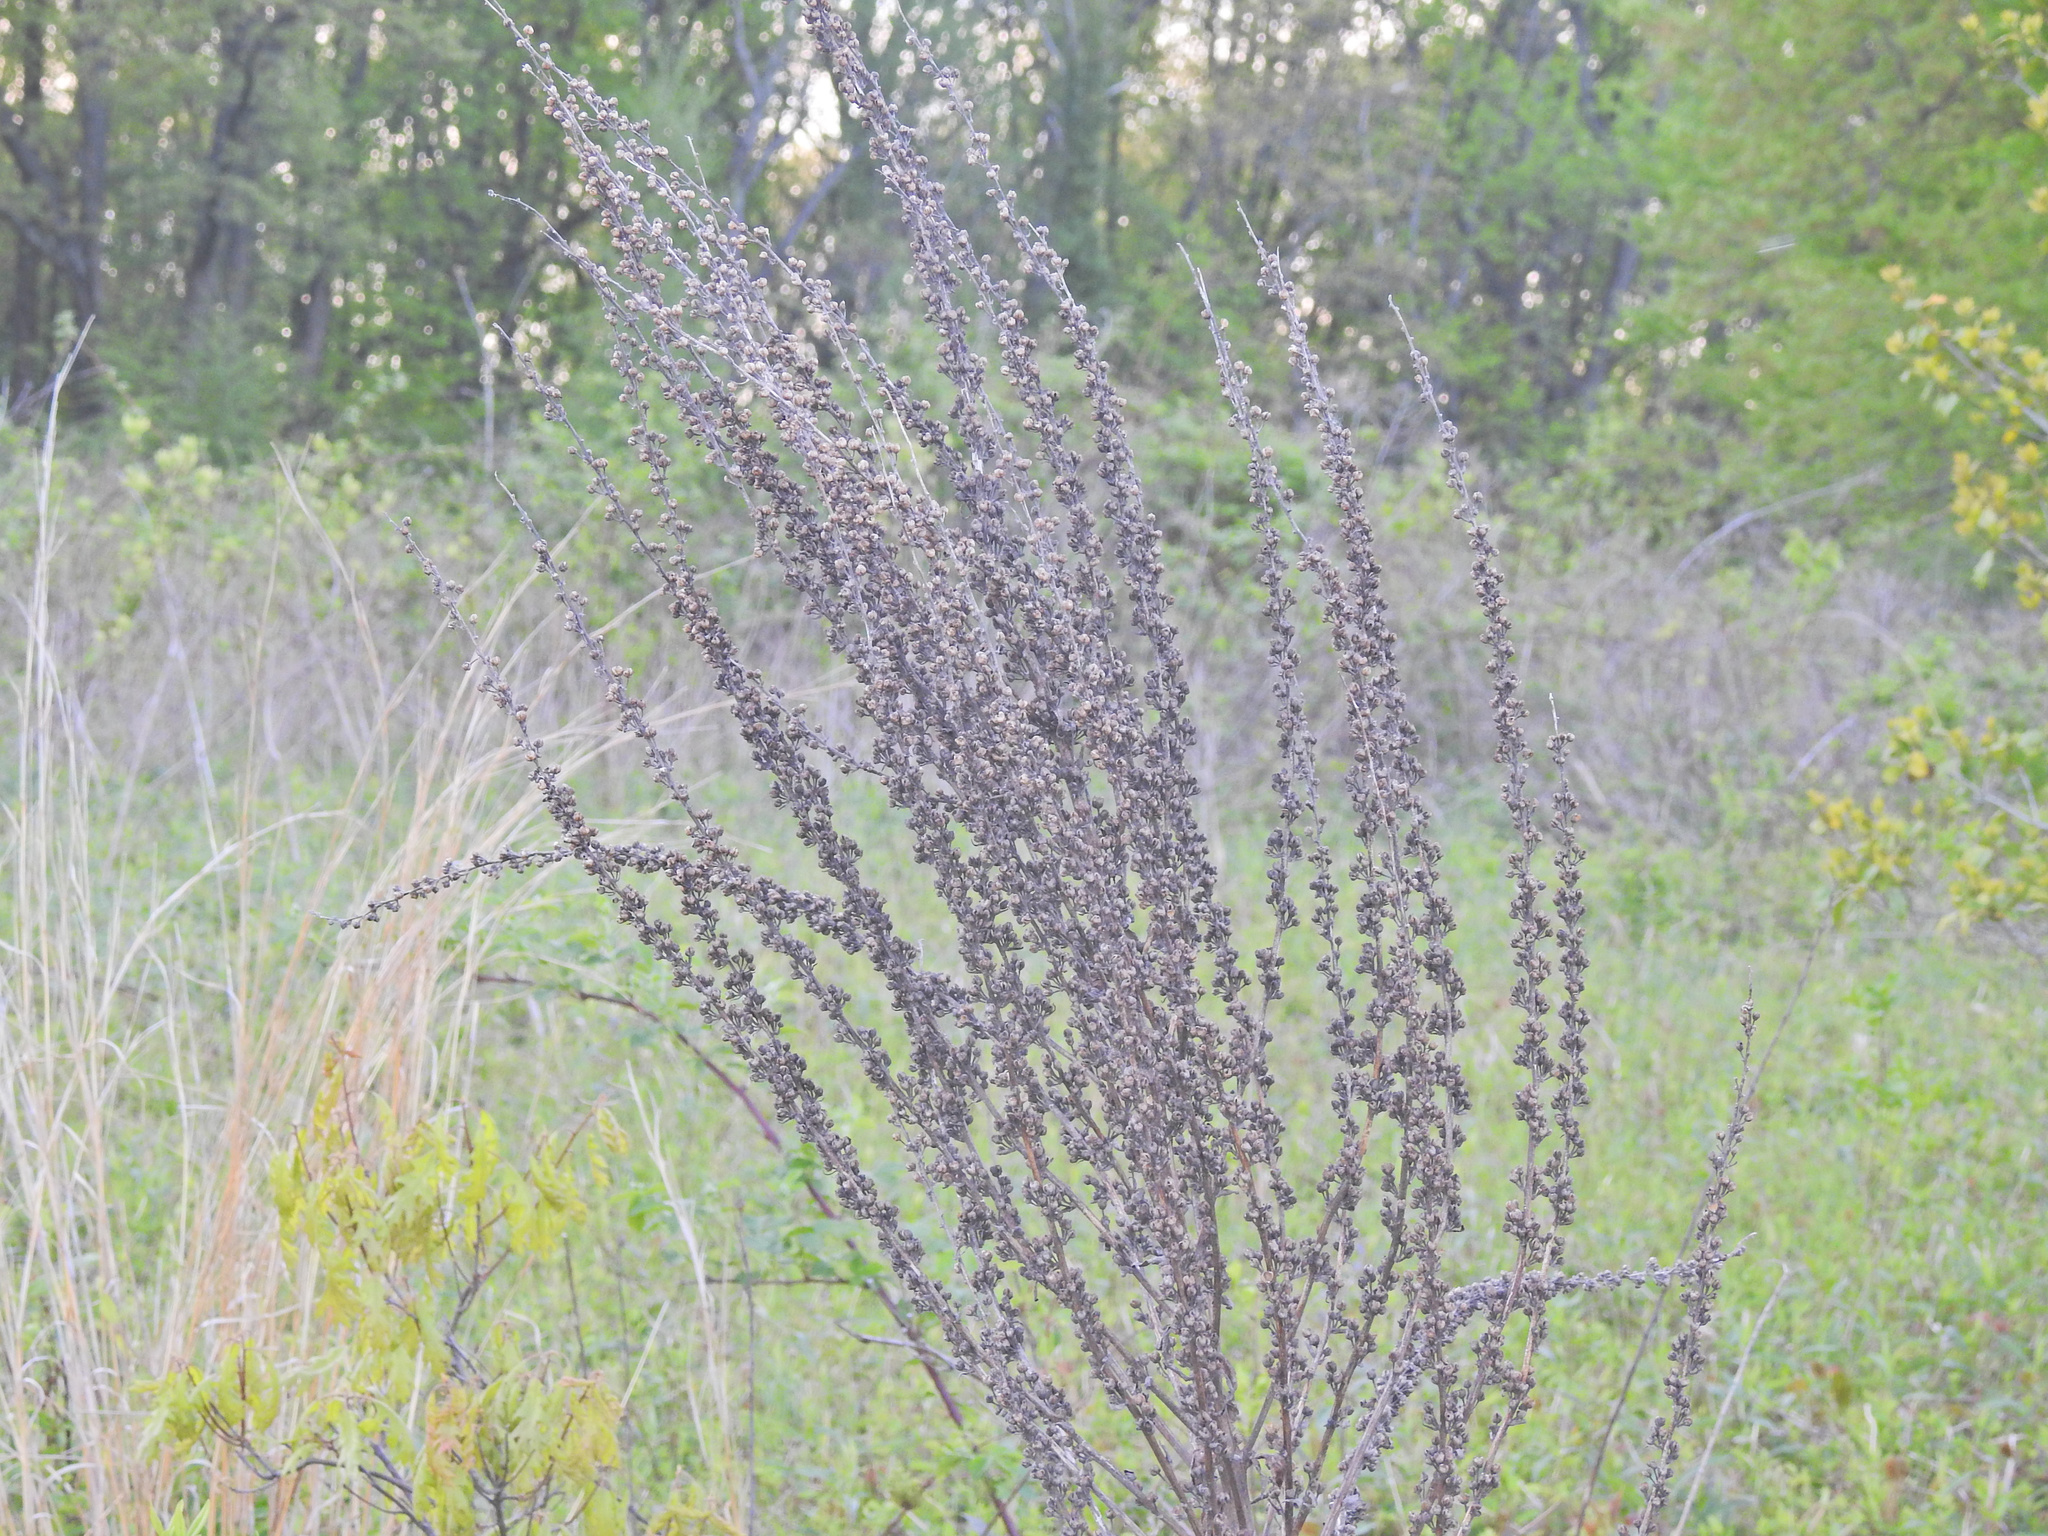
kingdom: Plantae
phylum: Tracheophyta
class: Magnoliopsida
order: Lamiales
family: Scrophulariaceae
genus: Verbascum
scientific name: Verbascum lychnitis
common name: White mullein
